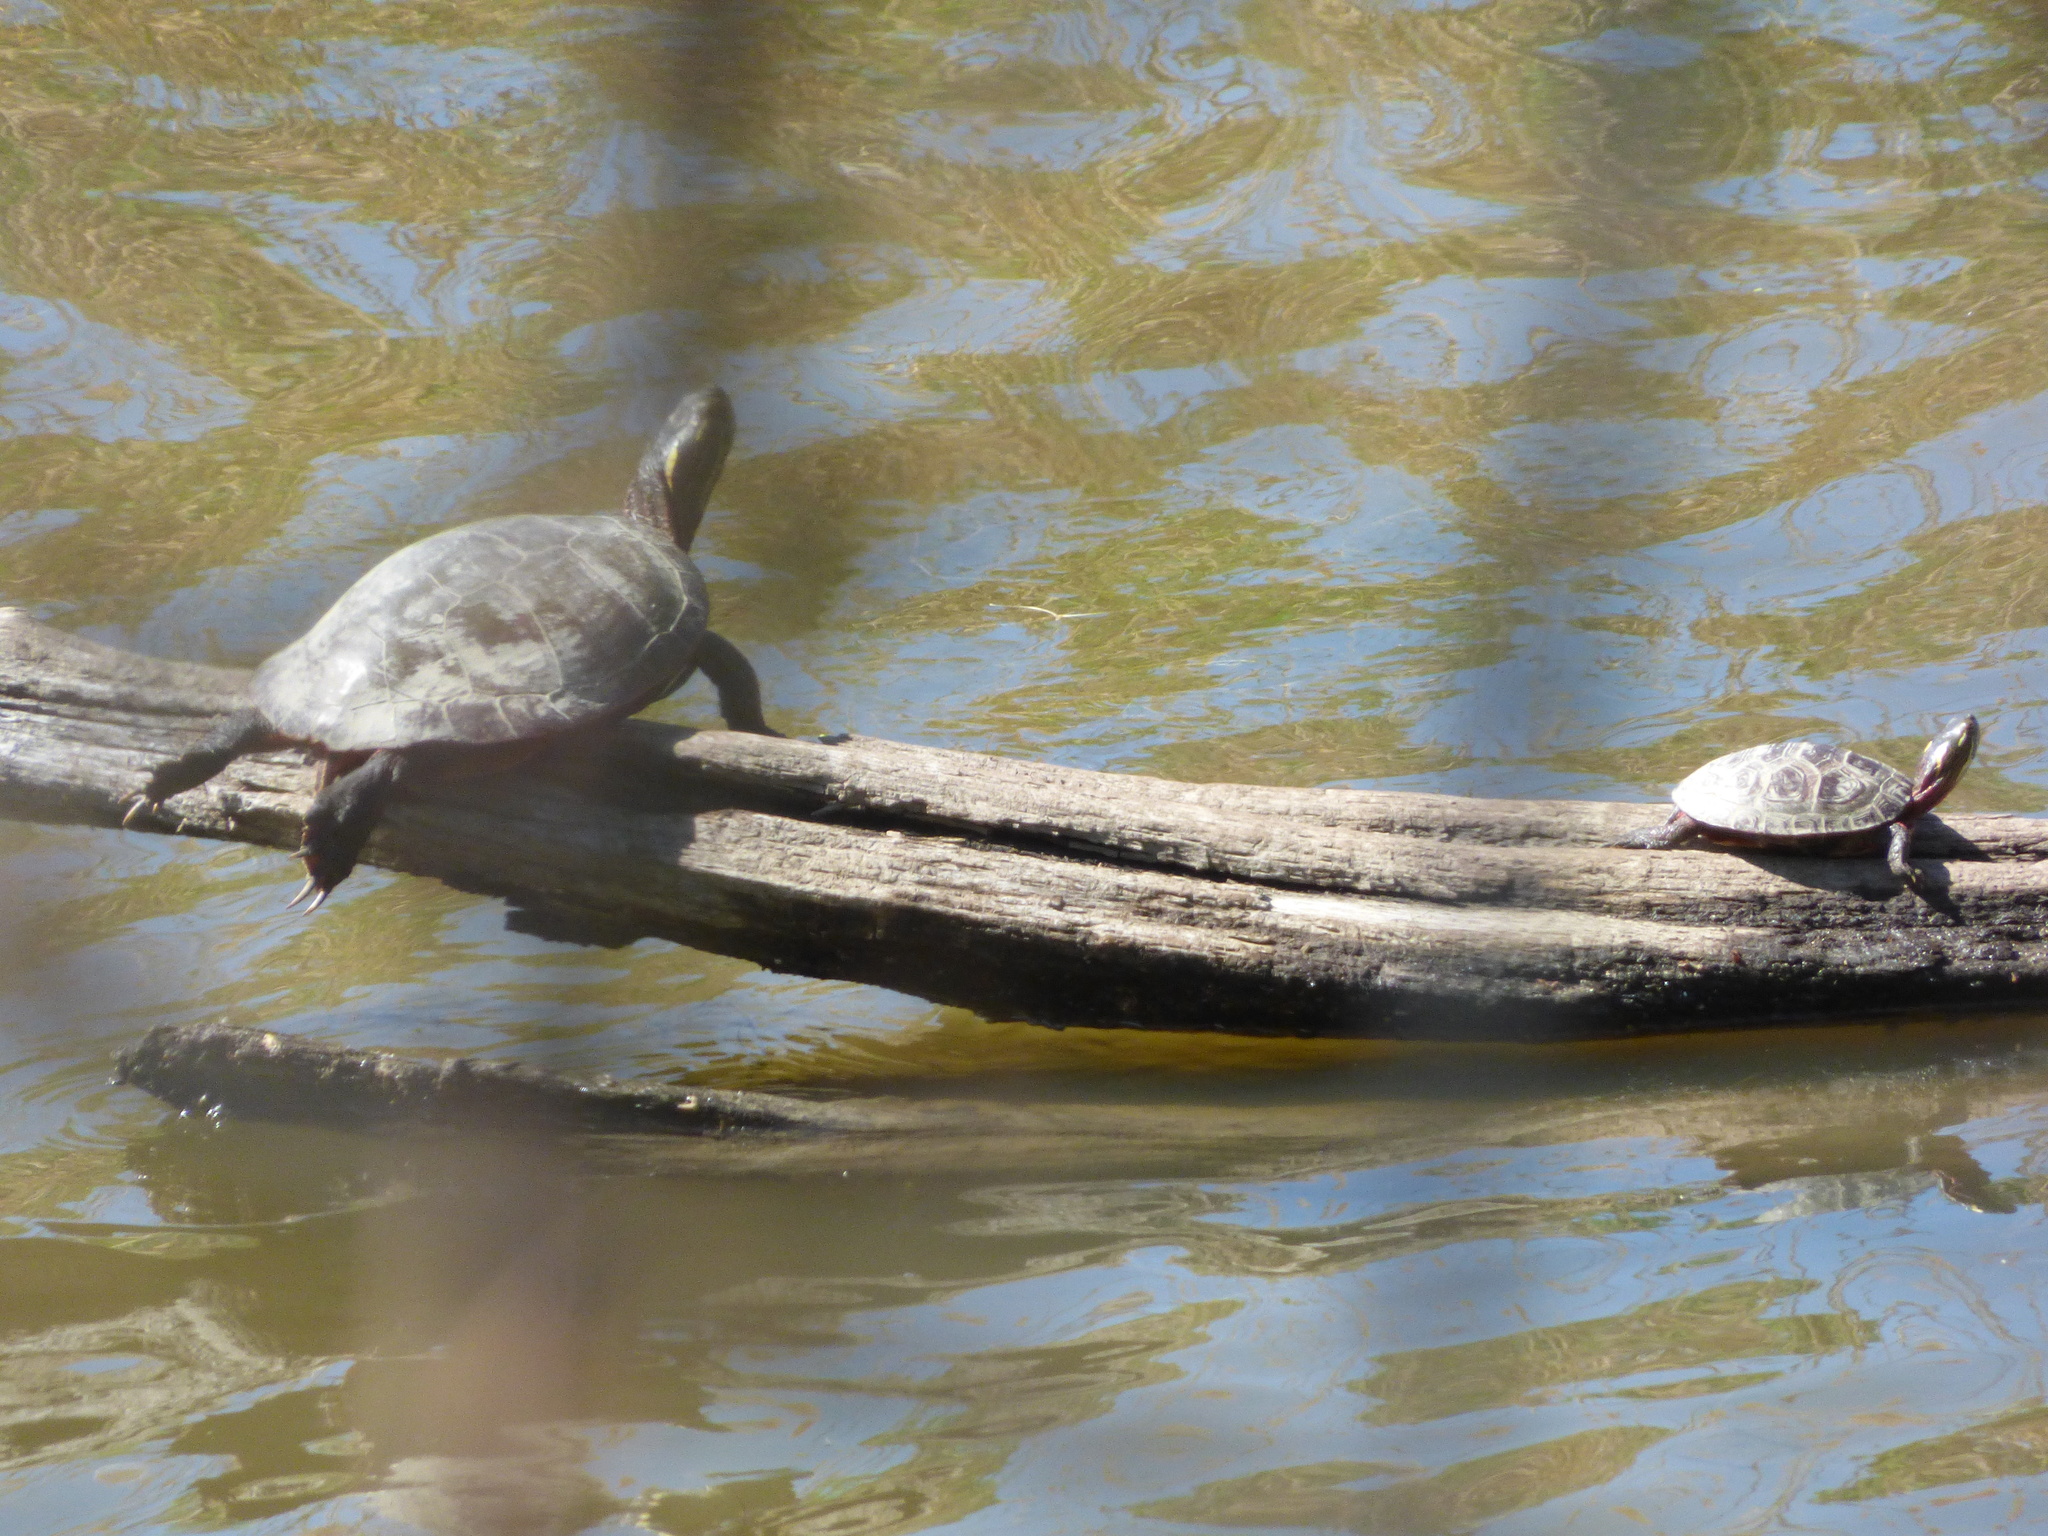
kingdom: Animalia
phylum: Chordata
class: Testudines
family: Emydidae
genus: Chrysemys
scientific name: Chrysemys picta
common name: Painted turtle
